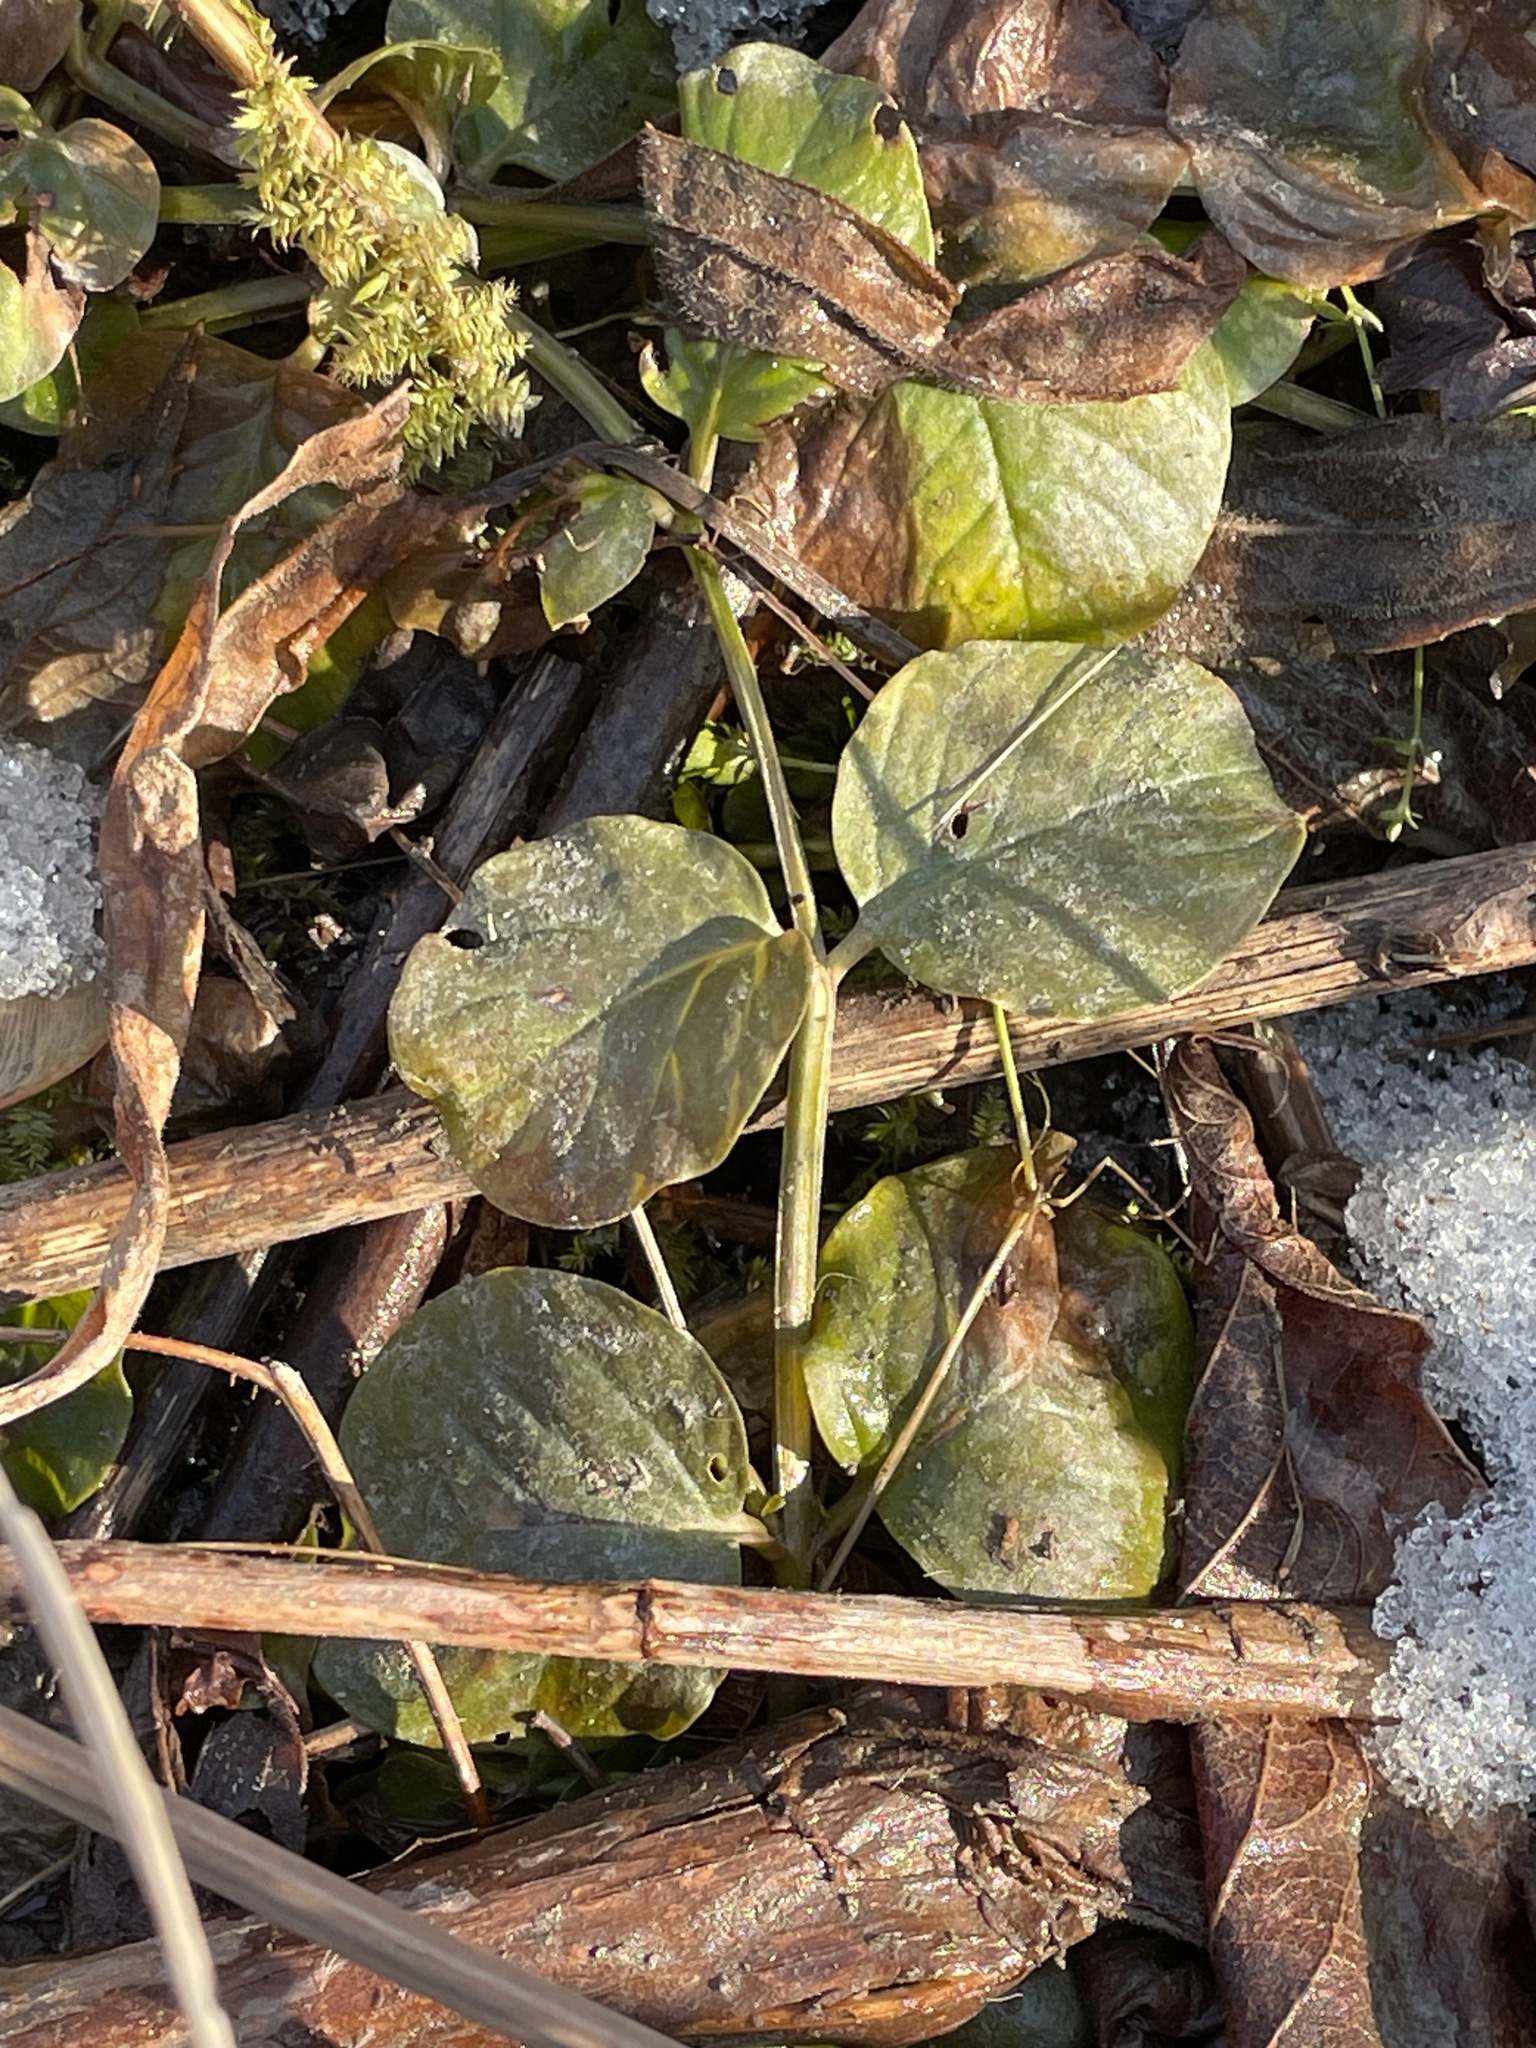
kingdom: Plantae
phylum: Tracheophyta
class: Magnoliopsida
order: Ericales
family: Primulaceae
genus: Lysimachia
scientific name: Lysimachia nummularia
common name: Moneywort
